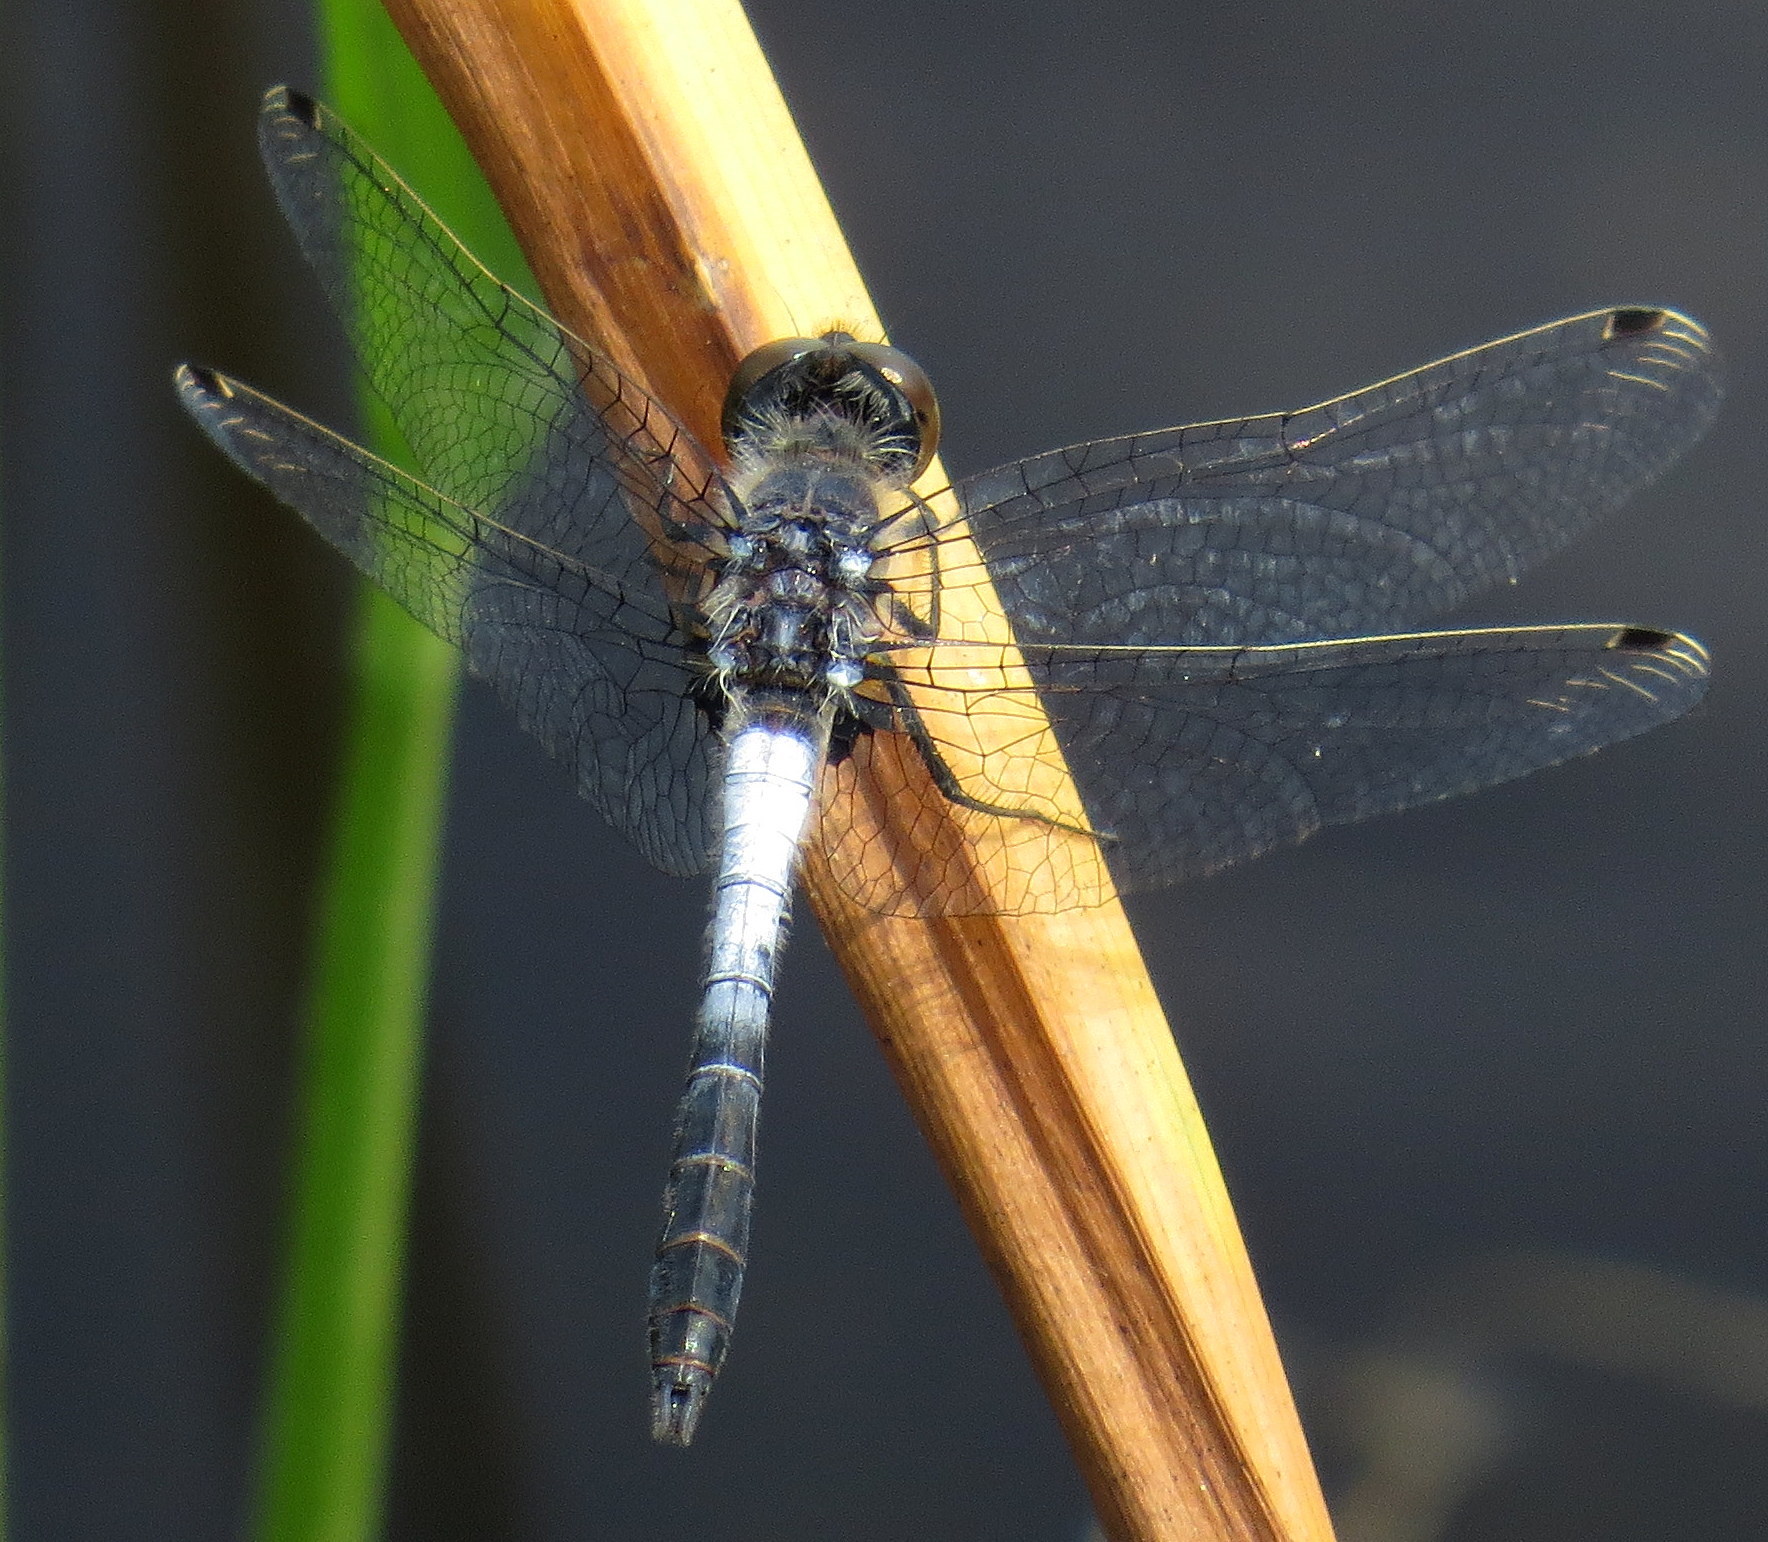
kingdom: Animalia
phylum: Arthropoda
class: Insecta
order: Odonata
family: Libellulidae
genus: Leucorrhinia
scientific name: Leucorrhinia frigida
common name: Frosted whiteface
